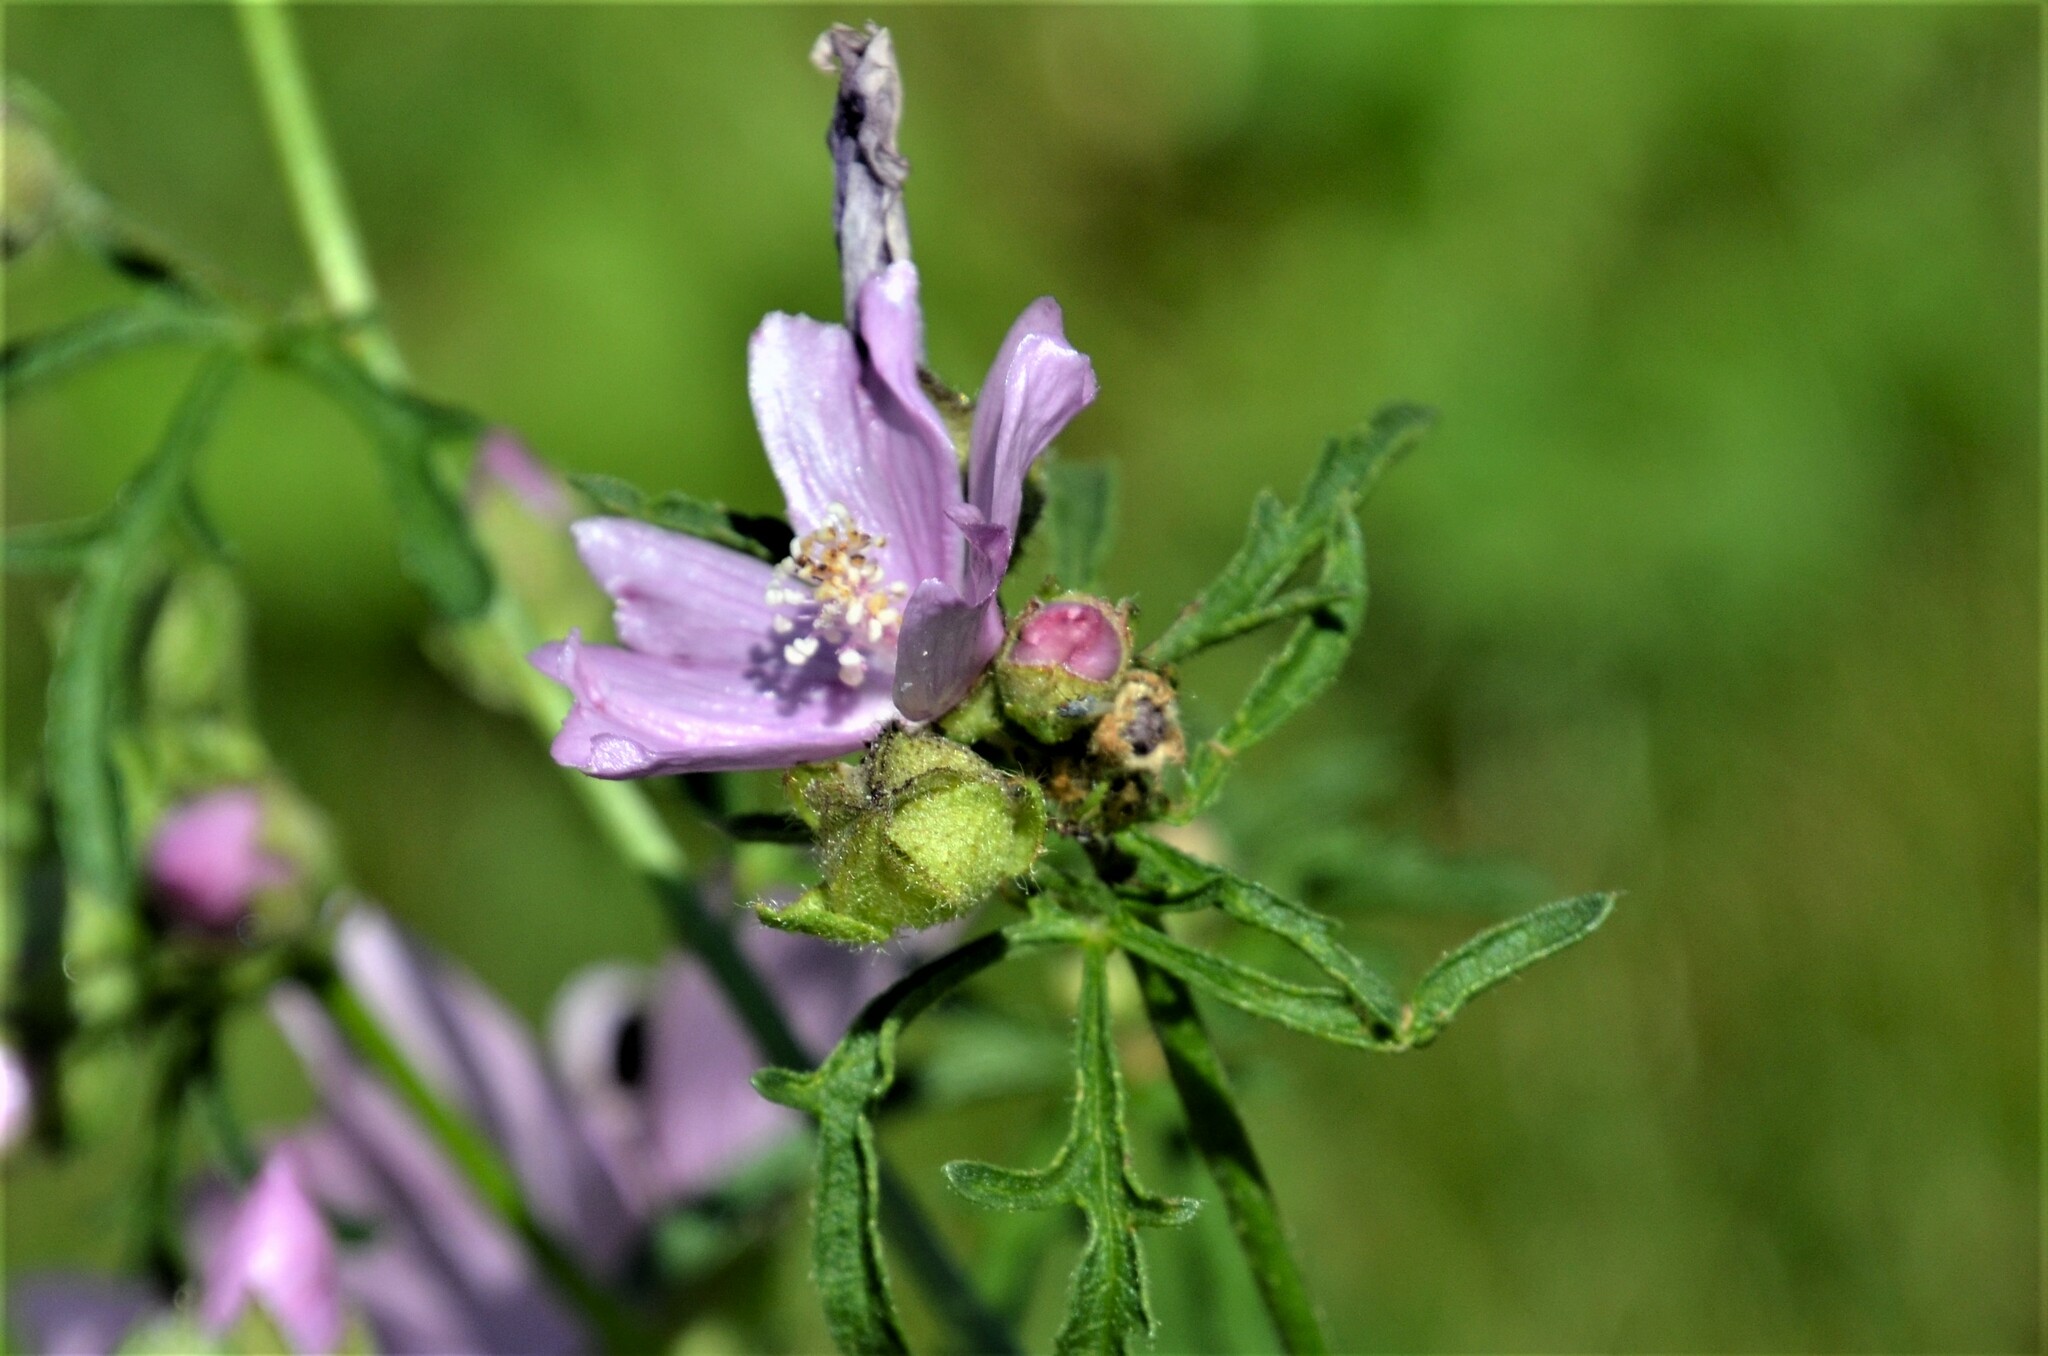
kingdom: Plantae
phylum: Tracheophyta
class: Magnoliopsida
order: Malvales
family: Malvaceae
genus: Malva
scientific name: Malva alcea
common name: Greater musk-mallow
